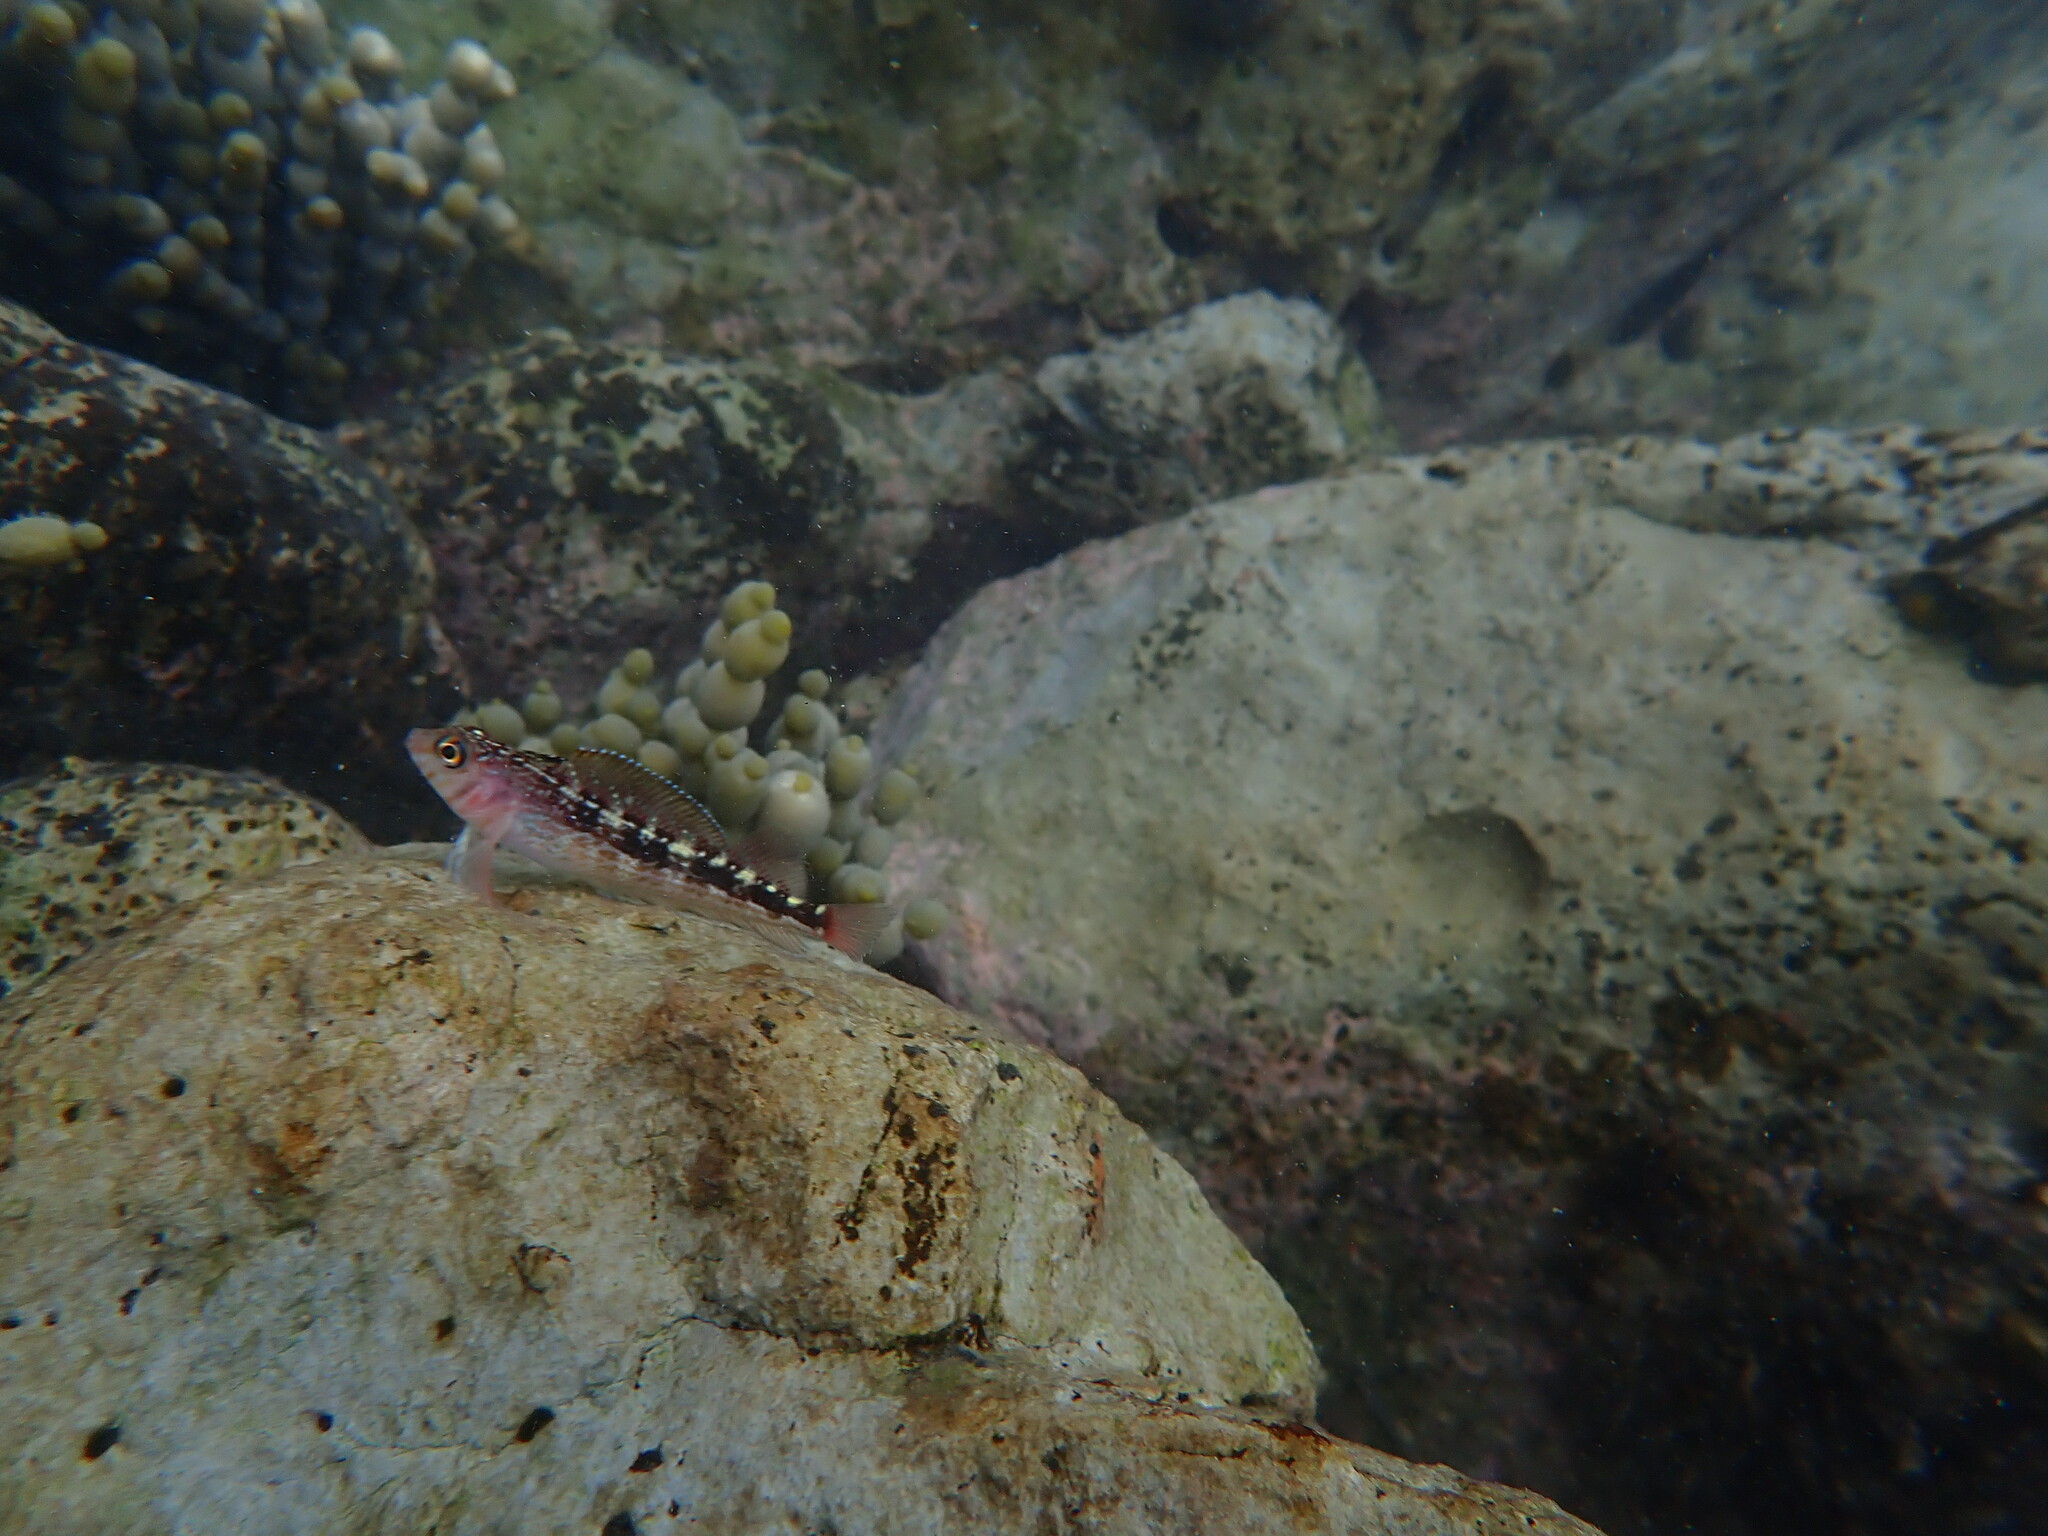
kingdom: Animalia
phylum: Chordata
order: Perciformes
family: Tripterygiidae
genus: Forsterygion
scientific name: Forsterygion lapillum
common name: Common triplefin
